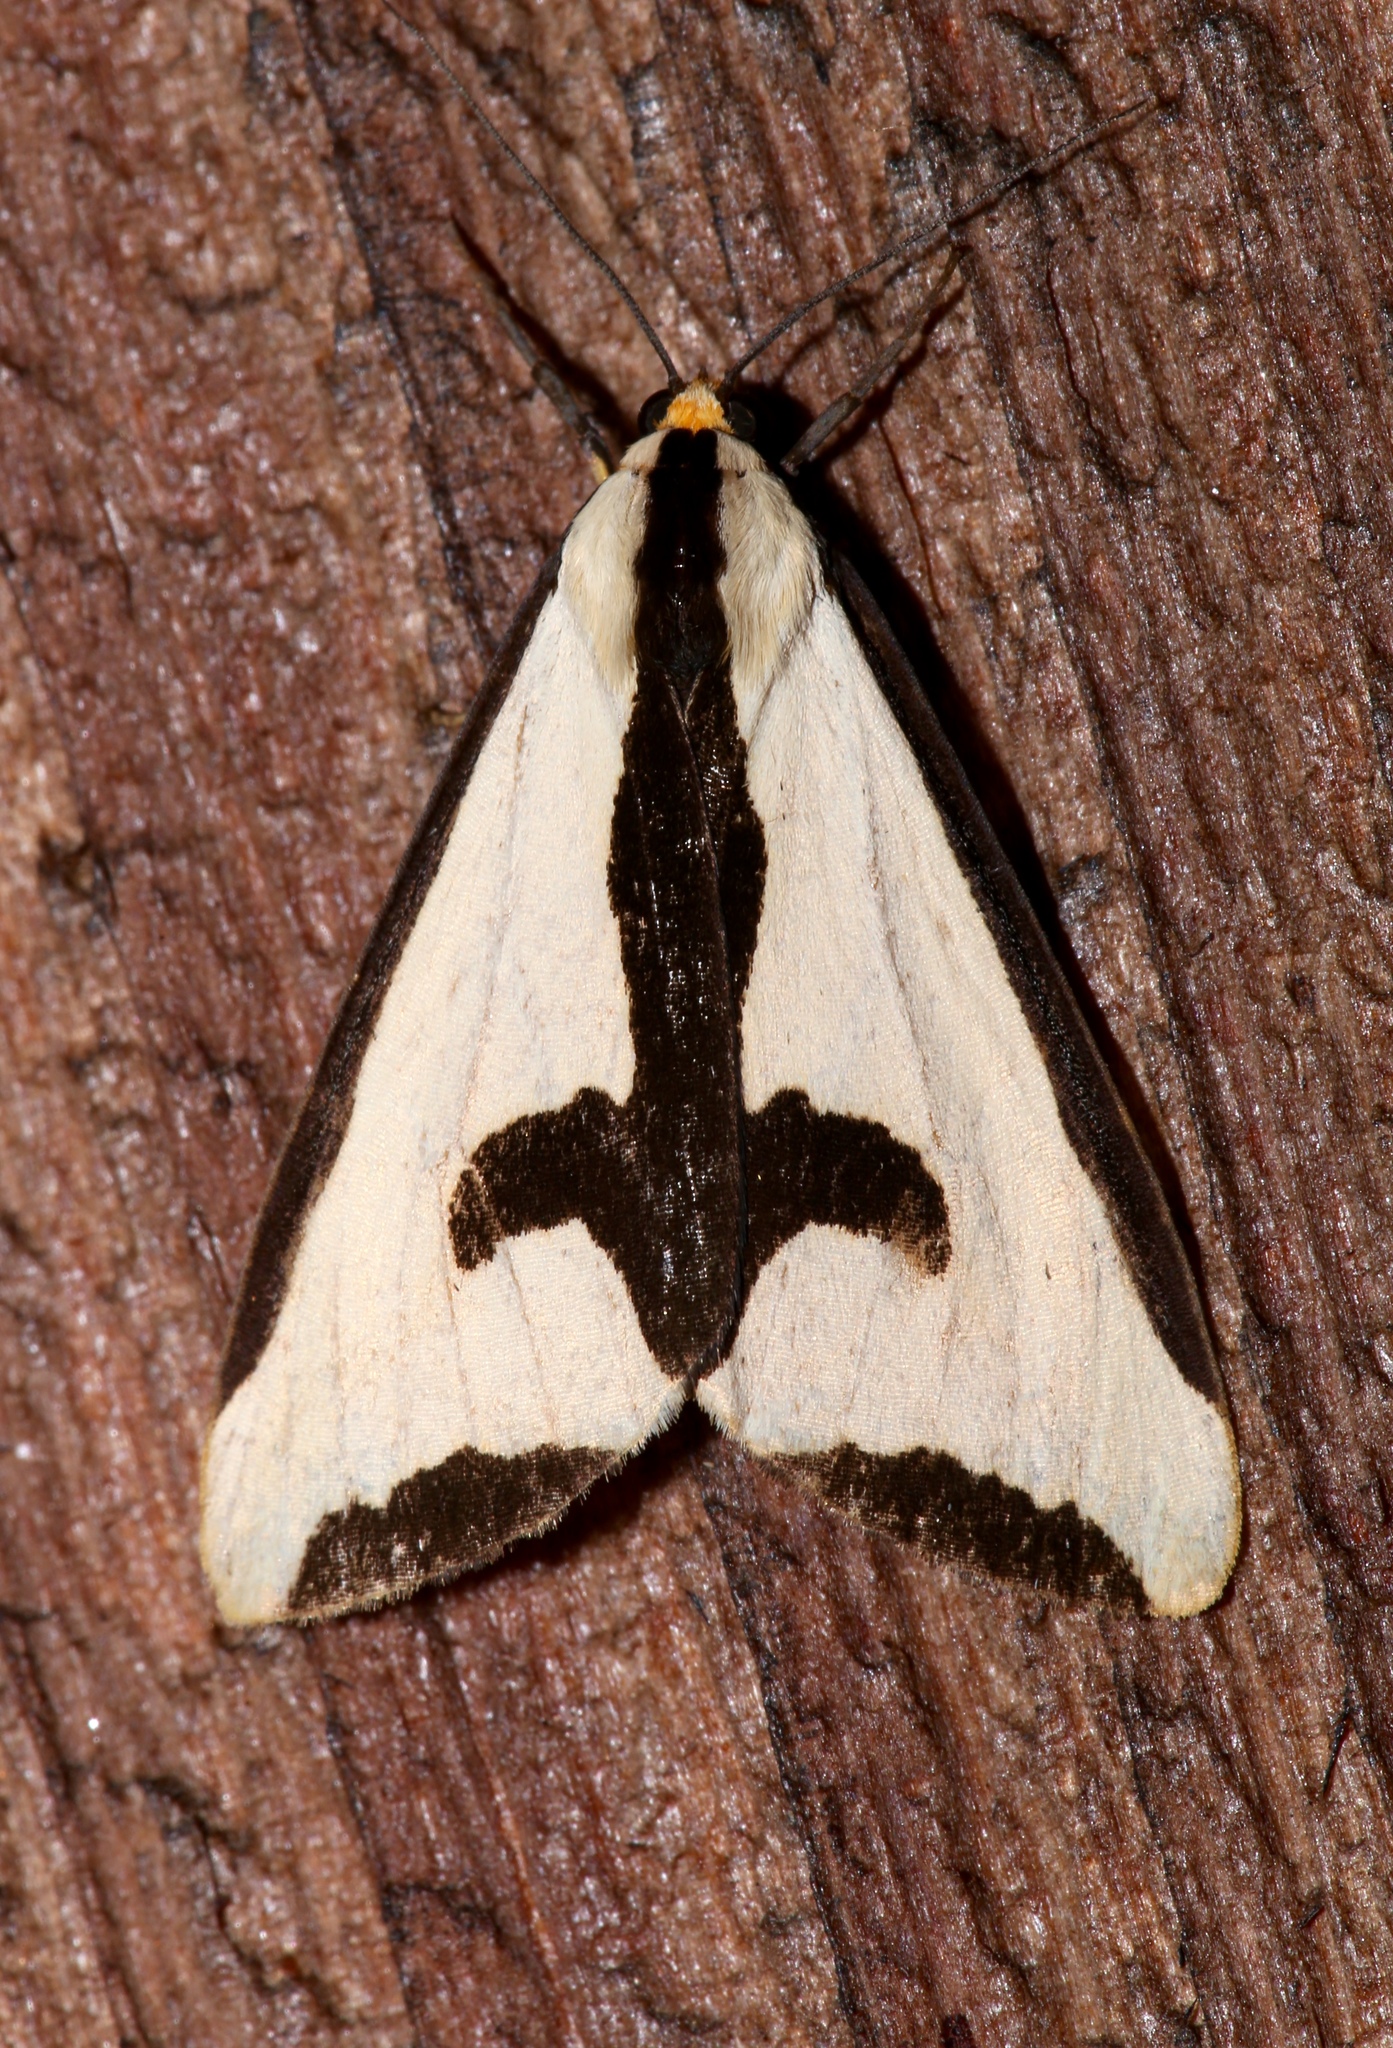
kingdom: Animalia
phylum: Arthropoda
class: Insecta
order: Lepidoptera
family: Erebidae
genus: Haploa
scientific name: Haploa clymene
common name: Clymene moth
